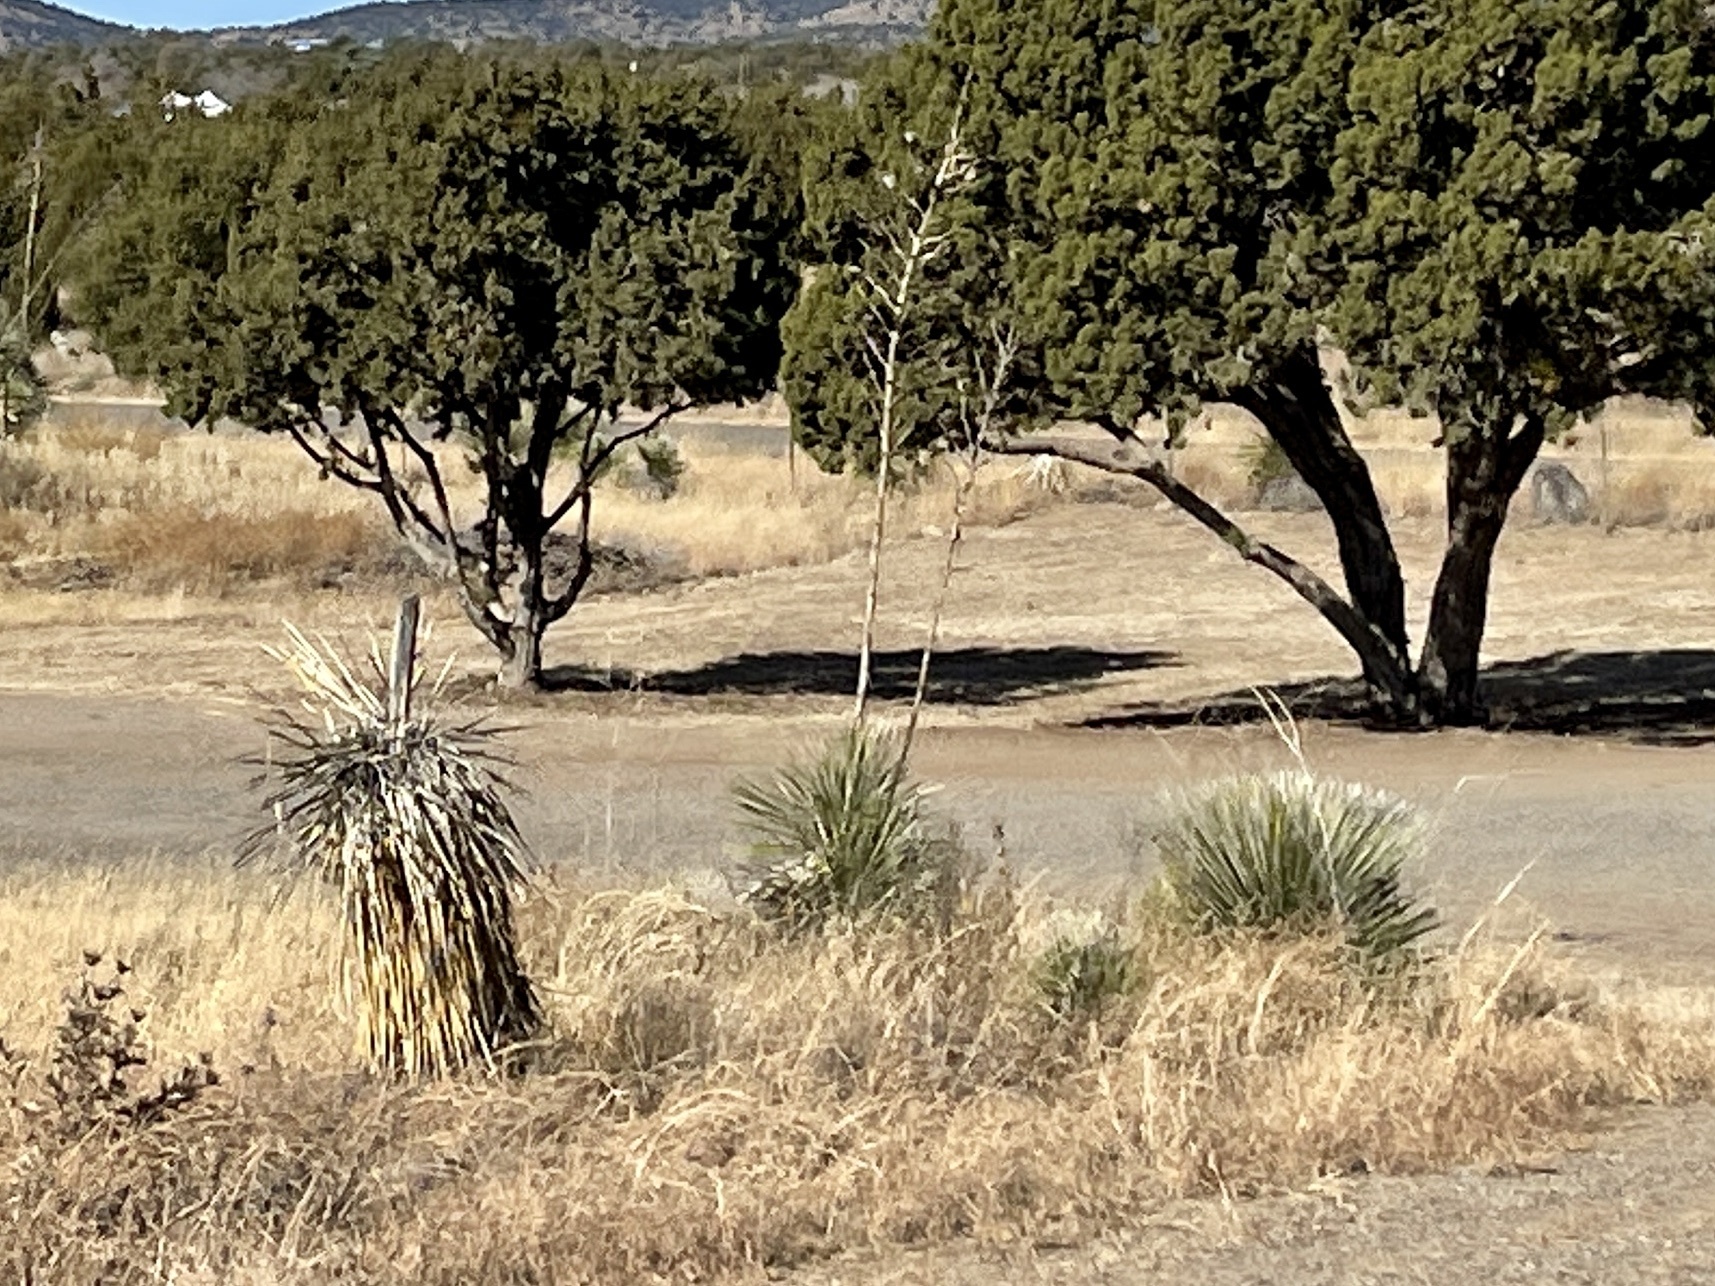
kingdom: Plantae
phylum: Tracheophyta
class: Liliopsida
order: Asparagales
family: Asparagaceae
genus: Yucca
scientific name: Yucca elata
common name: Palmella
